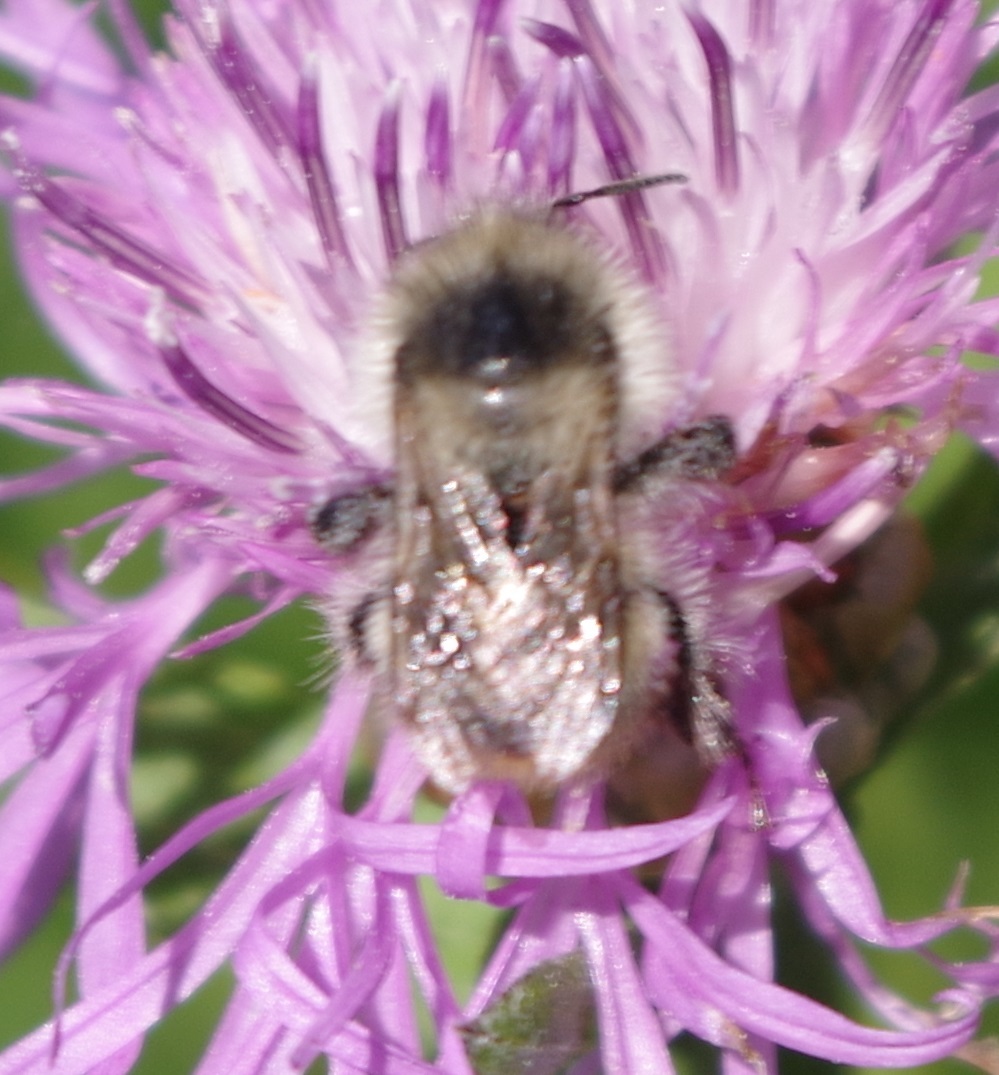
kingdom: Animalia
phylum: Arthropoda
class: Insecta
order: Hymenoptera
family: Apidae
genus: Bombus
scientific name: Bombus sylvarum
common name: Shrill carder bee
